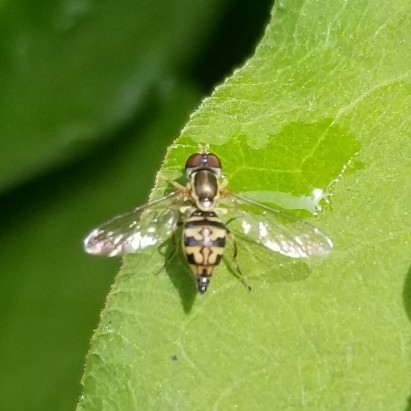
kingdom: Animalia
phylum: Arthropoda
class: Insecta
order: Diptera
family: Syrphidae
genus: Toxomerus
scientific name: Toxomerus geminatus
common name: Eastern calligrapher
